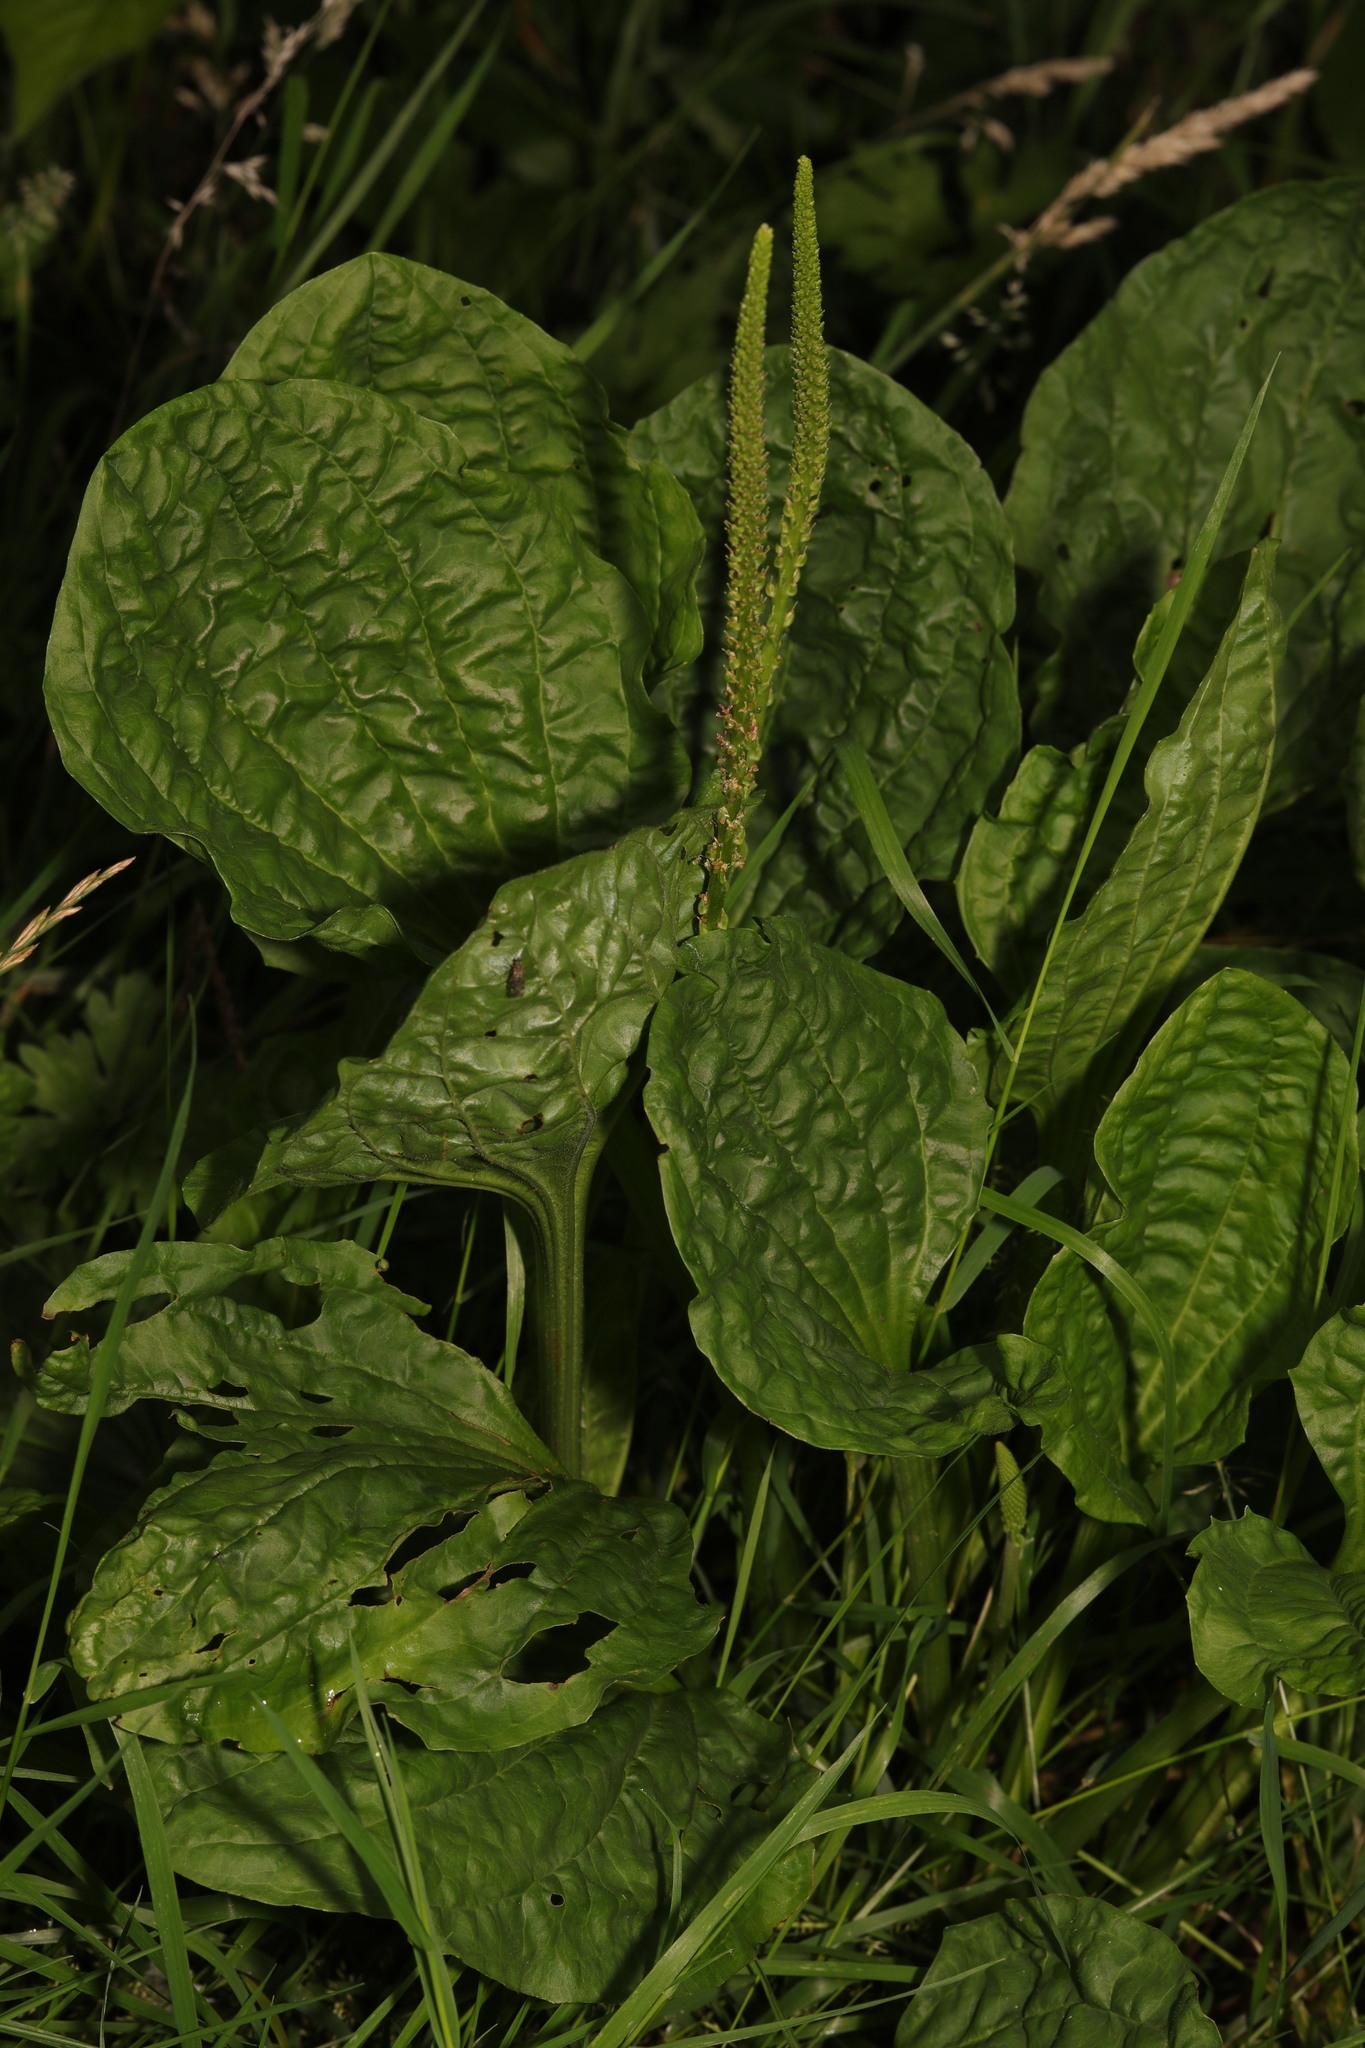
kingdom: Plantae
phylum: Tracheophyta
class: Magnoliopsida
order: Lamiales
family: Plantaginaceae
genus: Plantago
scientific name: Plantago major
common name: Common plantain
